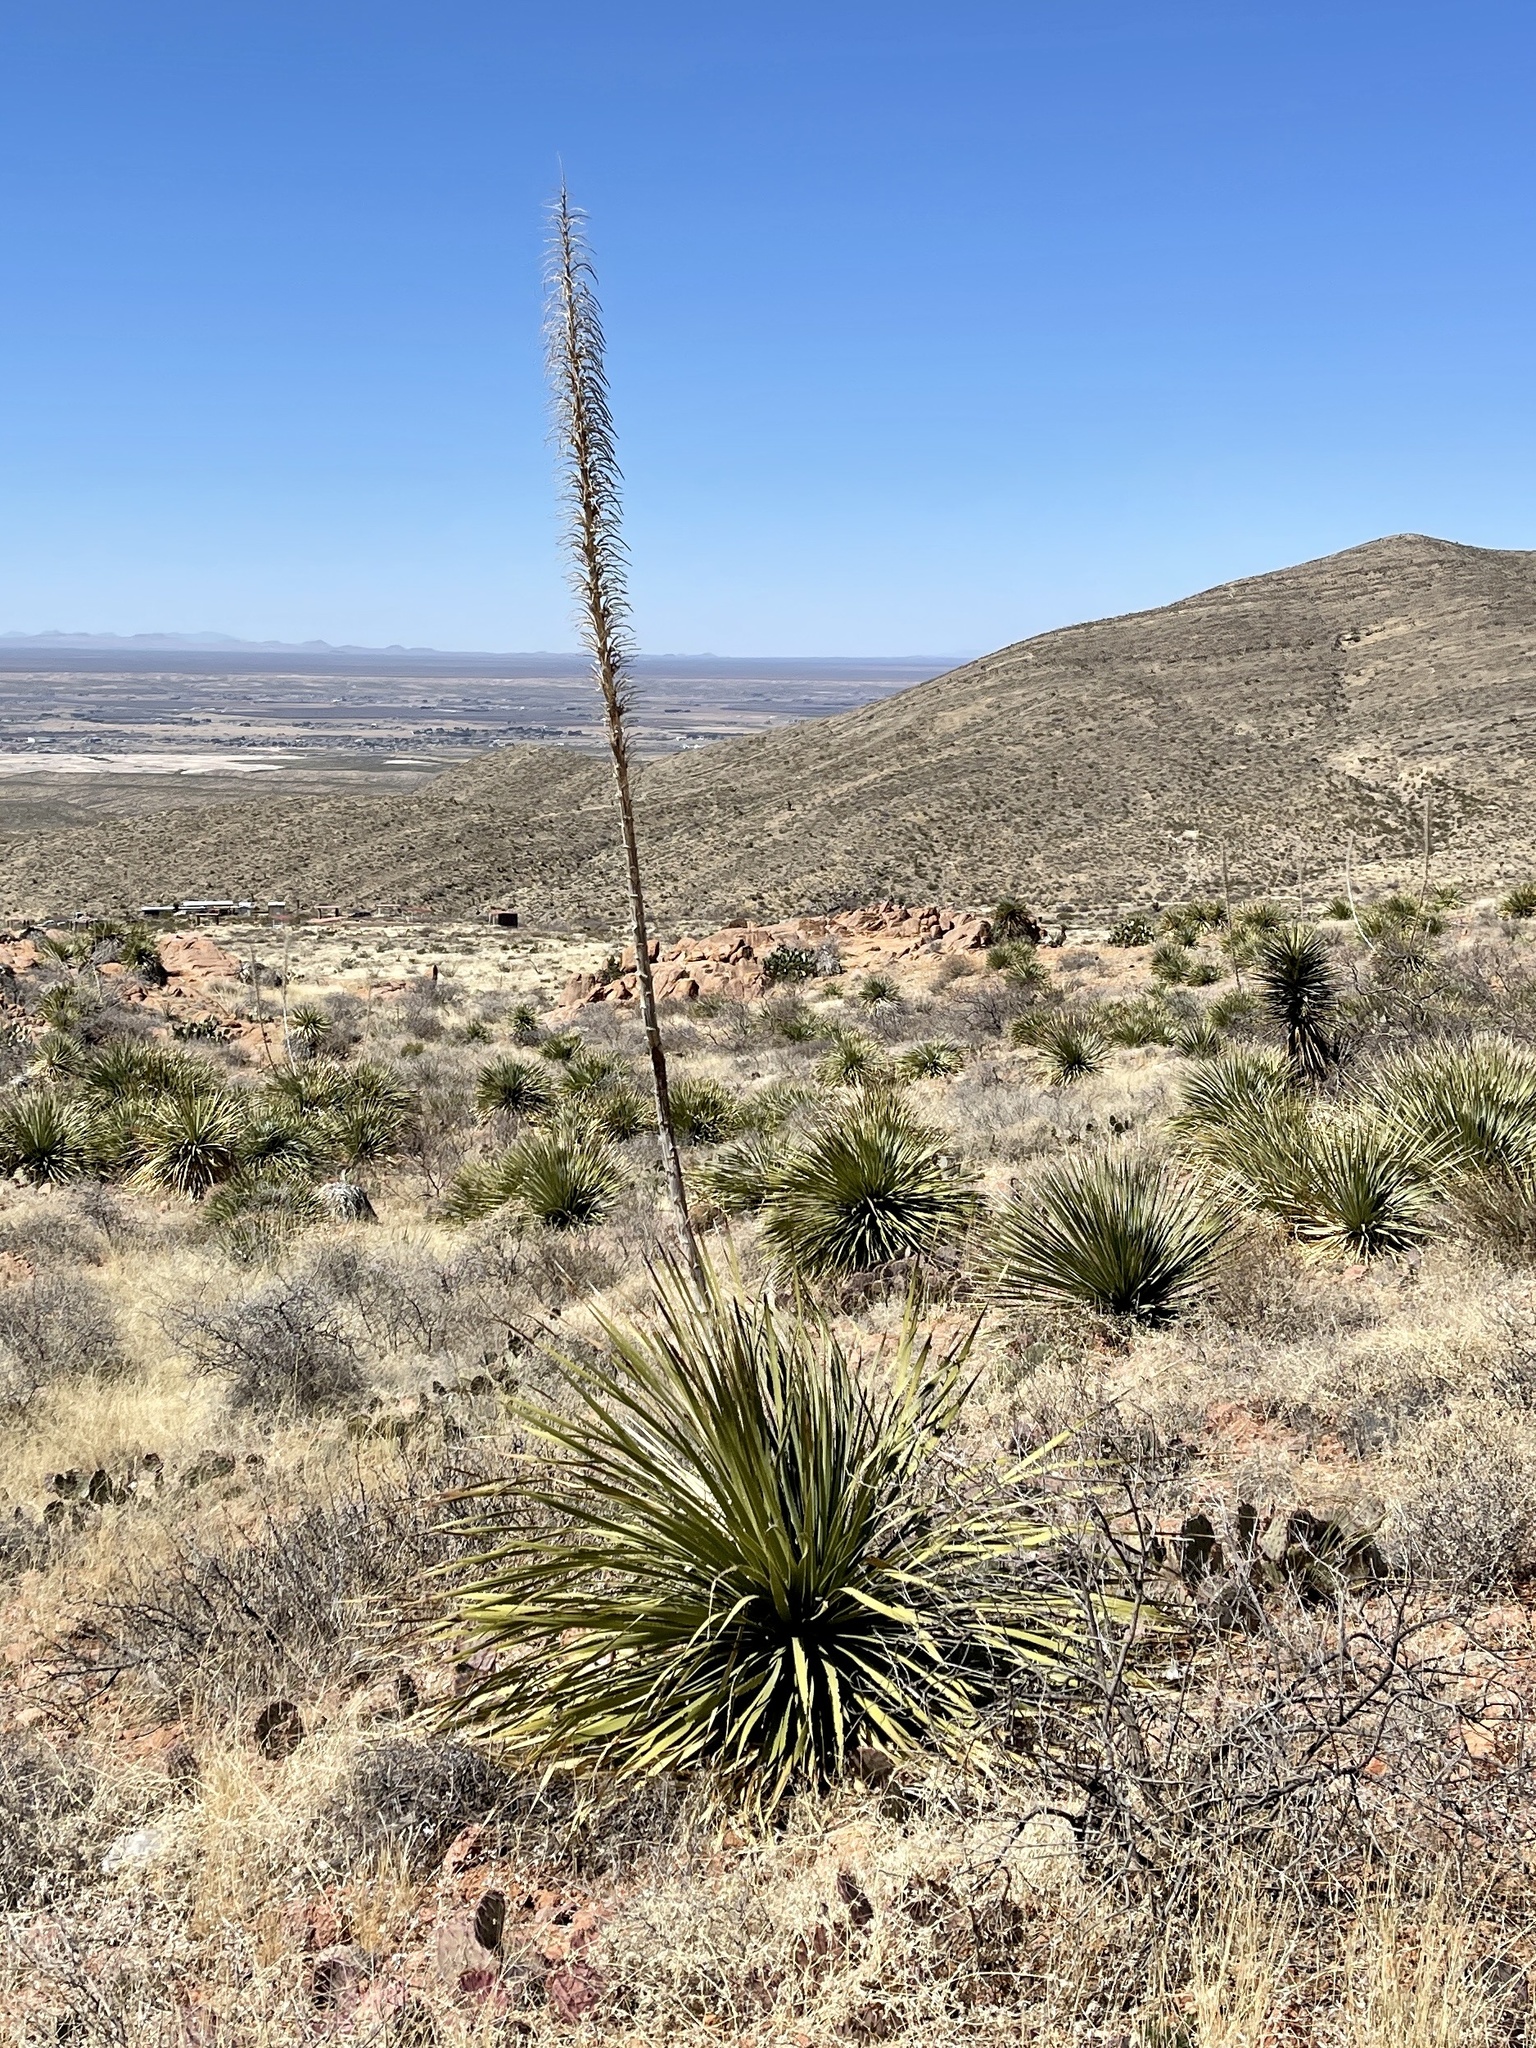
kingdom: Plantae
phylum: Tracheophyta
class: Liliopsida
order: Asparagales
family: Asparagaceae
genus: Dasylirion
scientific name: Dasylirion wheeleri
